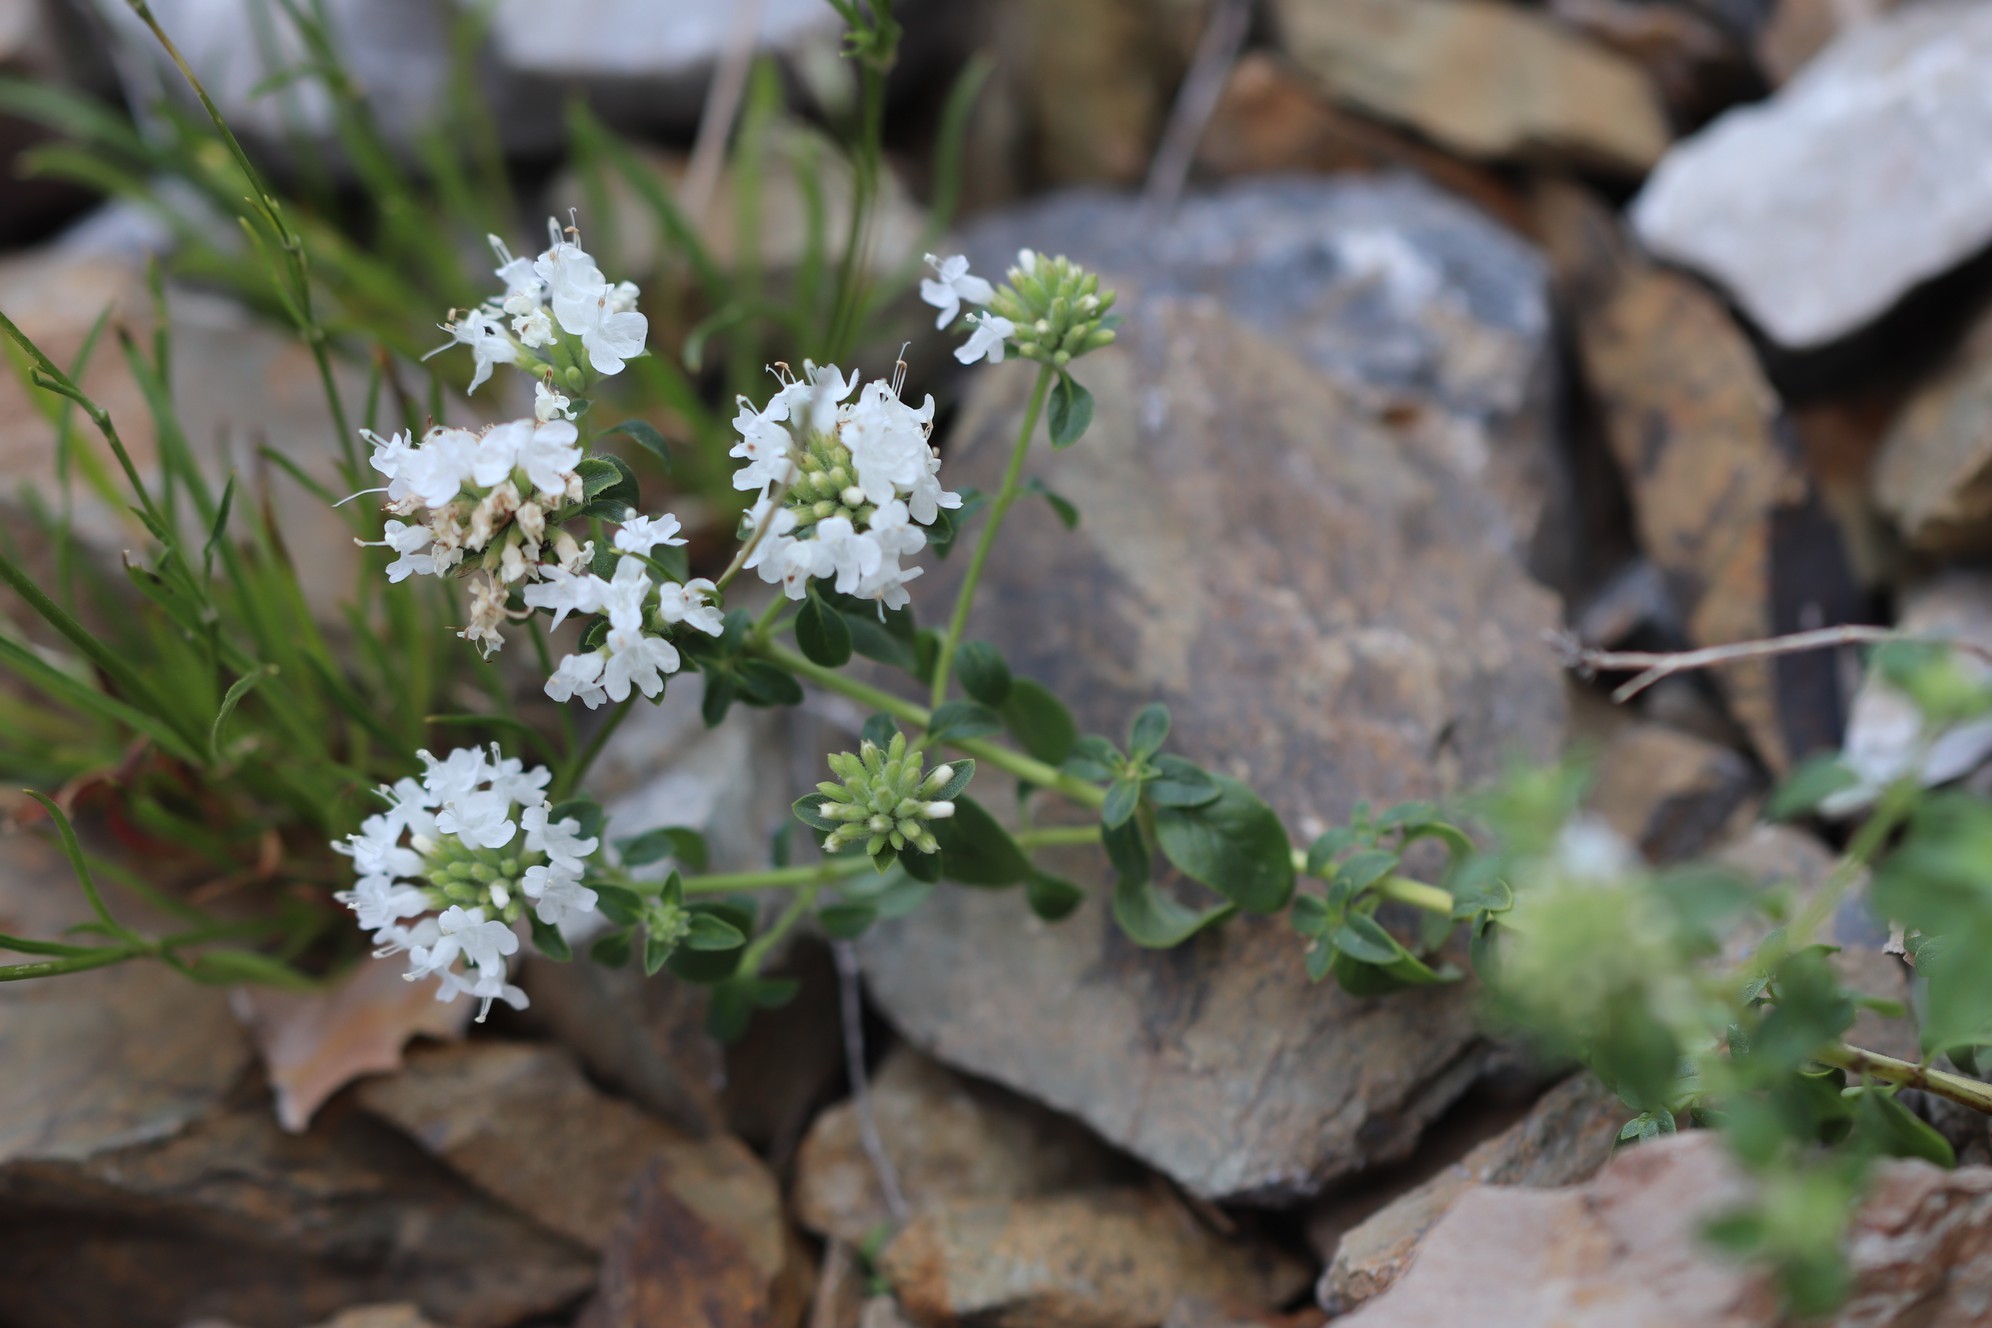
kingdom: Plantae
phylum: Tracheophyta
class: Magnoliopsida
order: Lamiales
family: Lamiaceae
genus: Ziziphora
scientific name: Ziziphora clinopodioides
